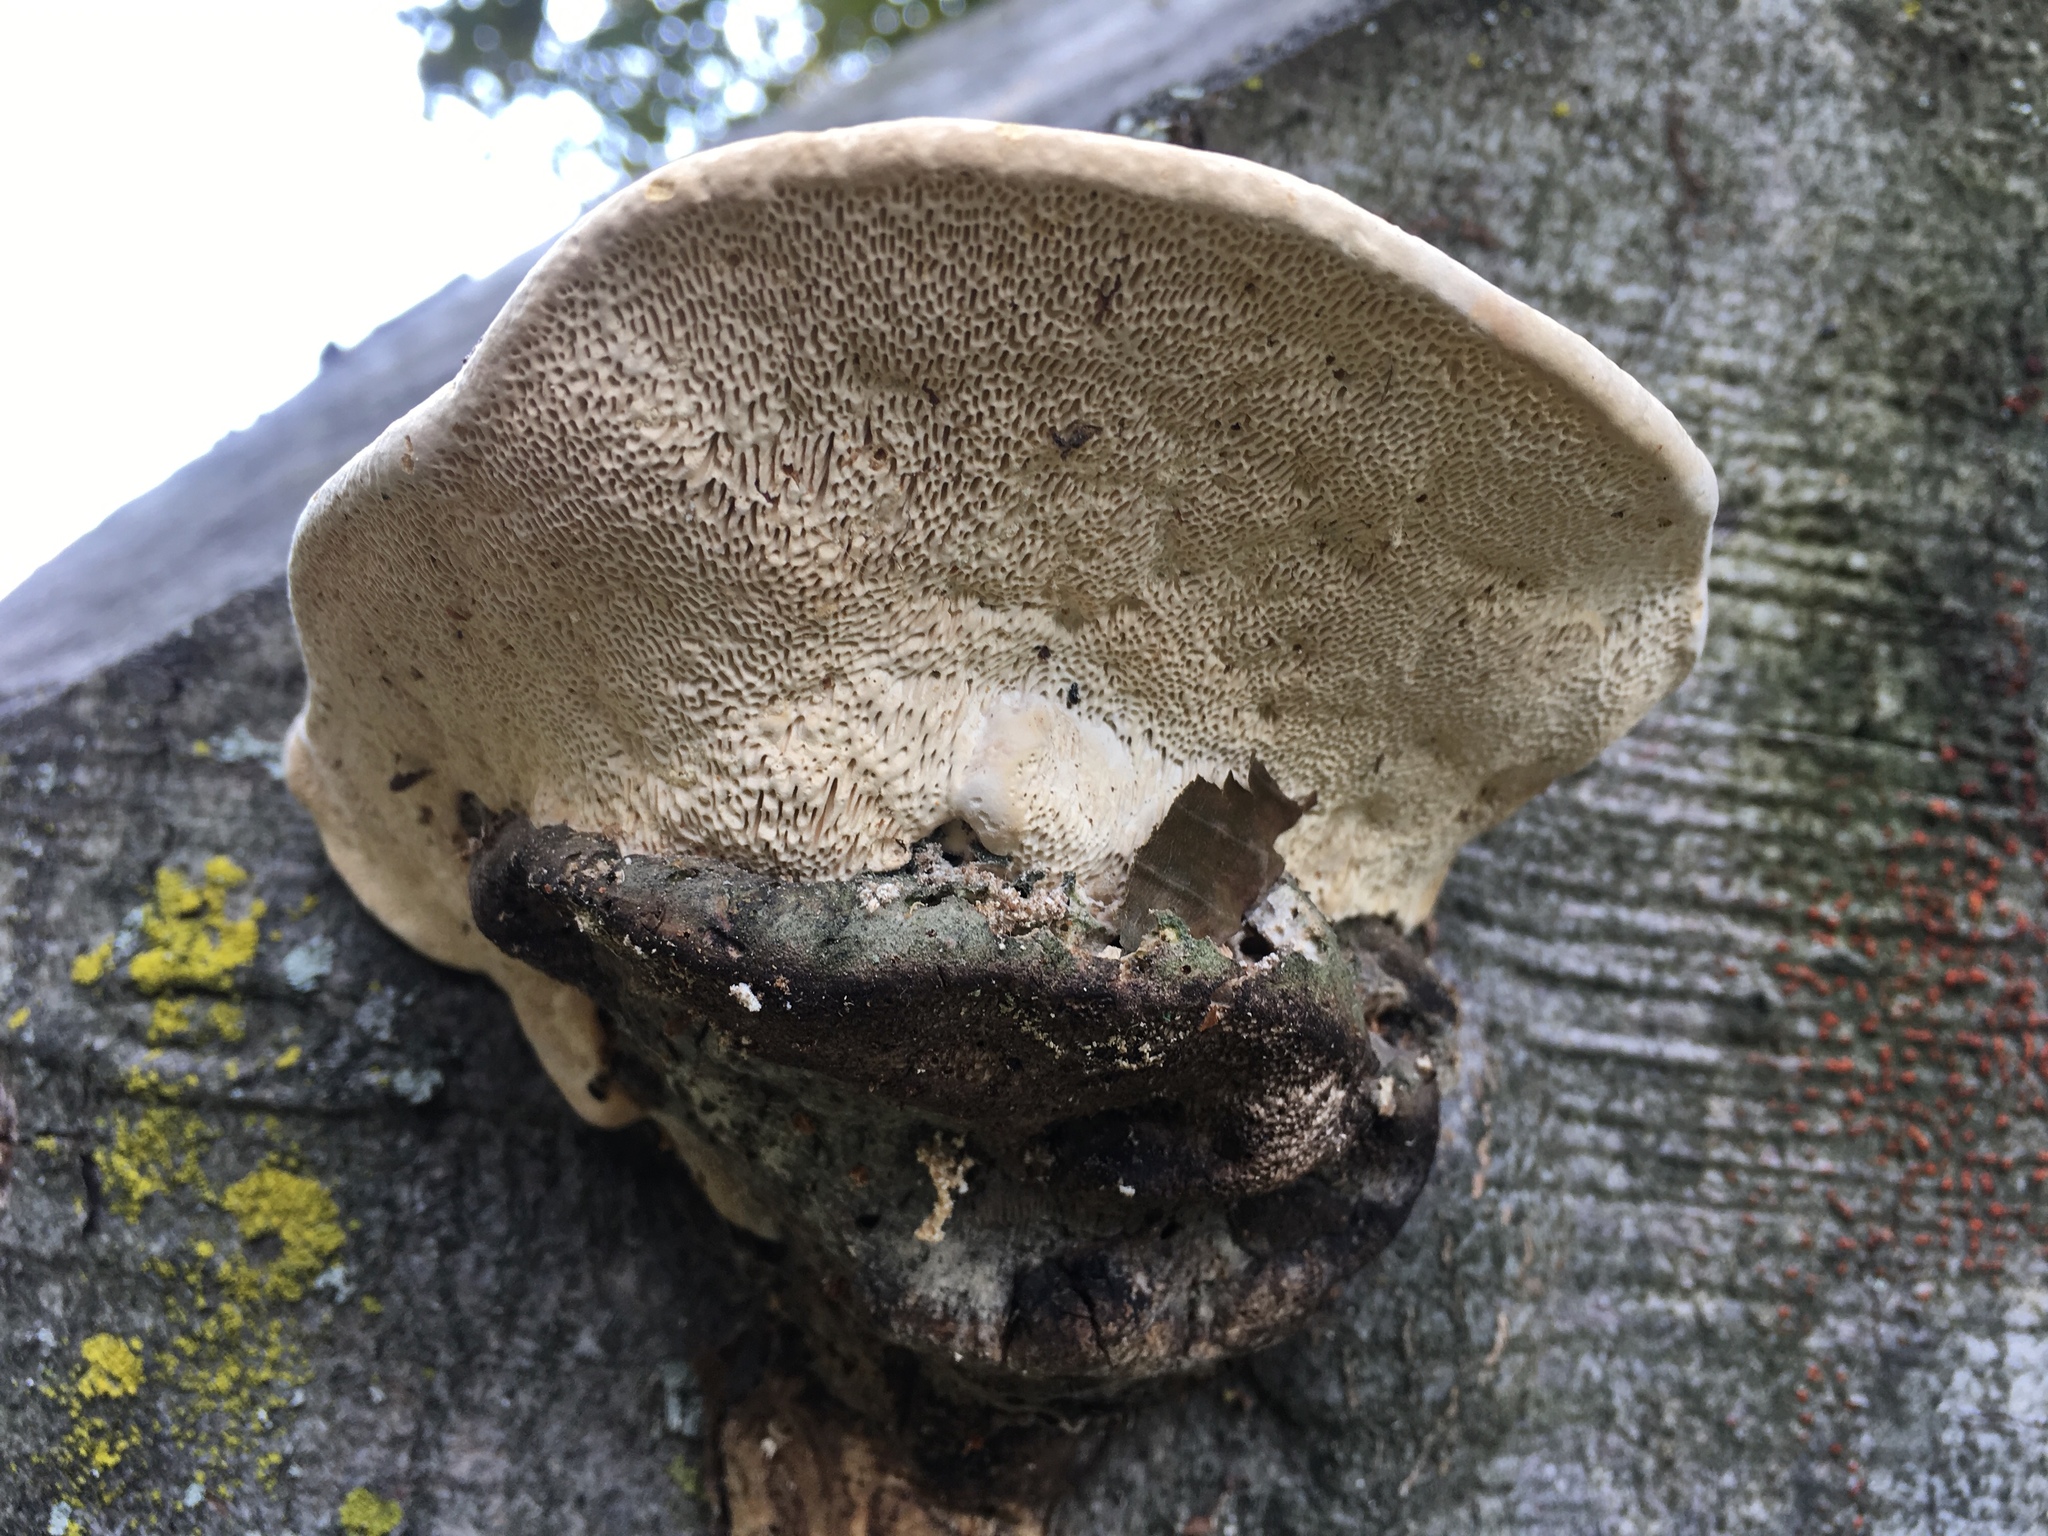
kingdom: Fungi
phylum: Basidiomycota
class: Agaricomycetes
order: Polyporales
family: Polyporaceae
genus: Trametes
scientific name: Trametes gibbosa
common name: Lumpy bracket
